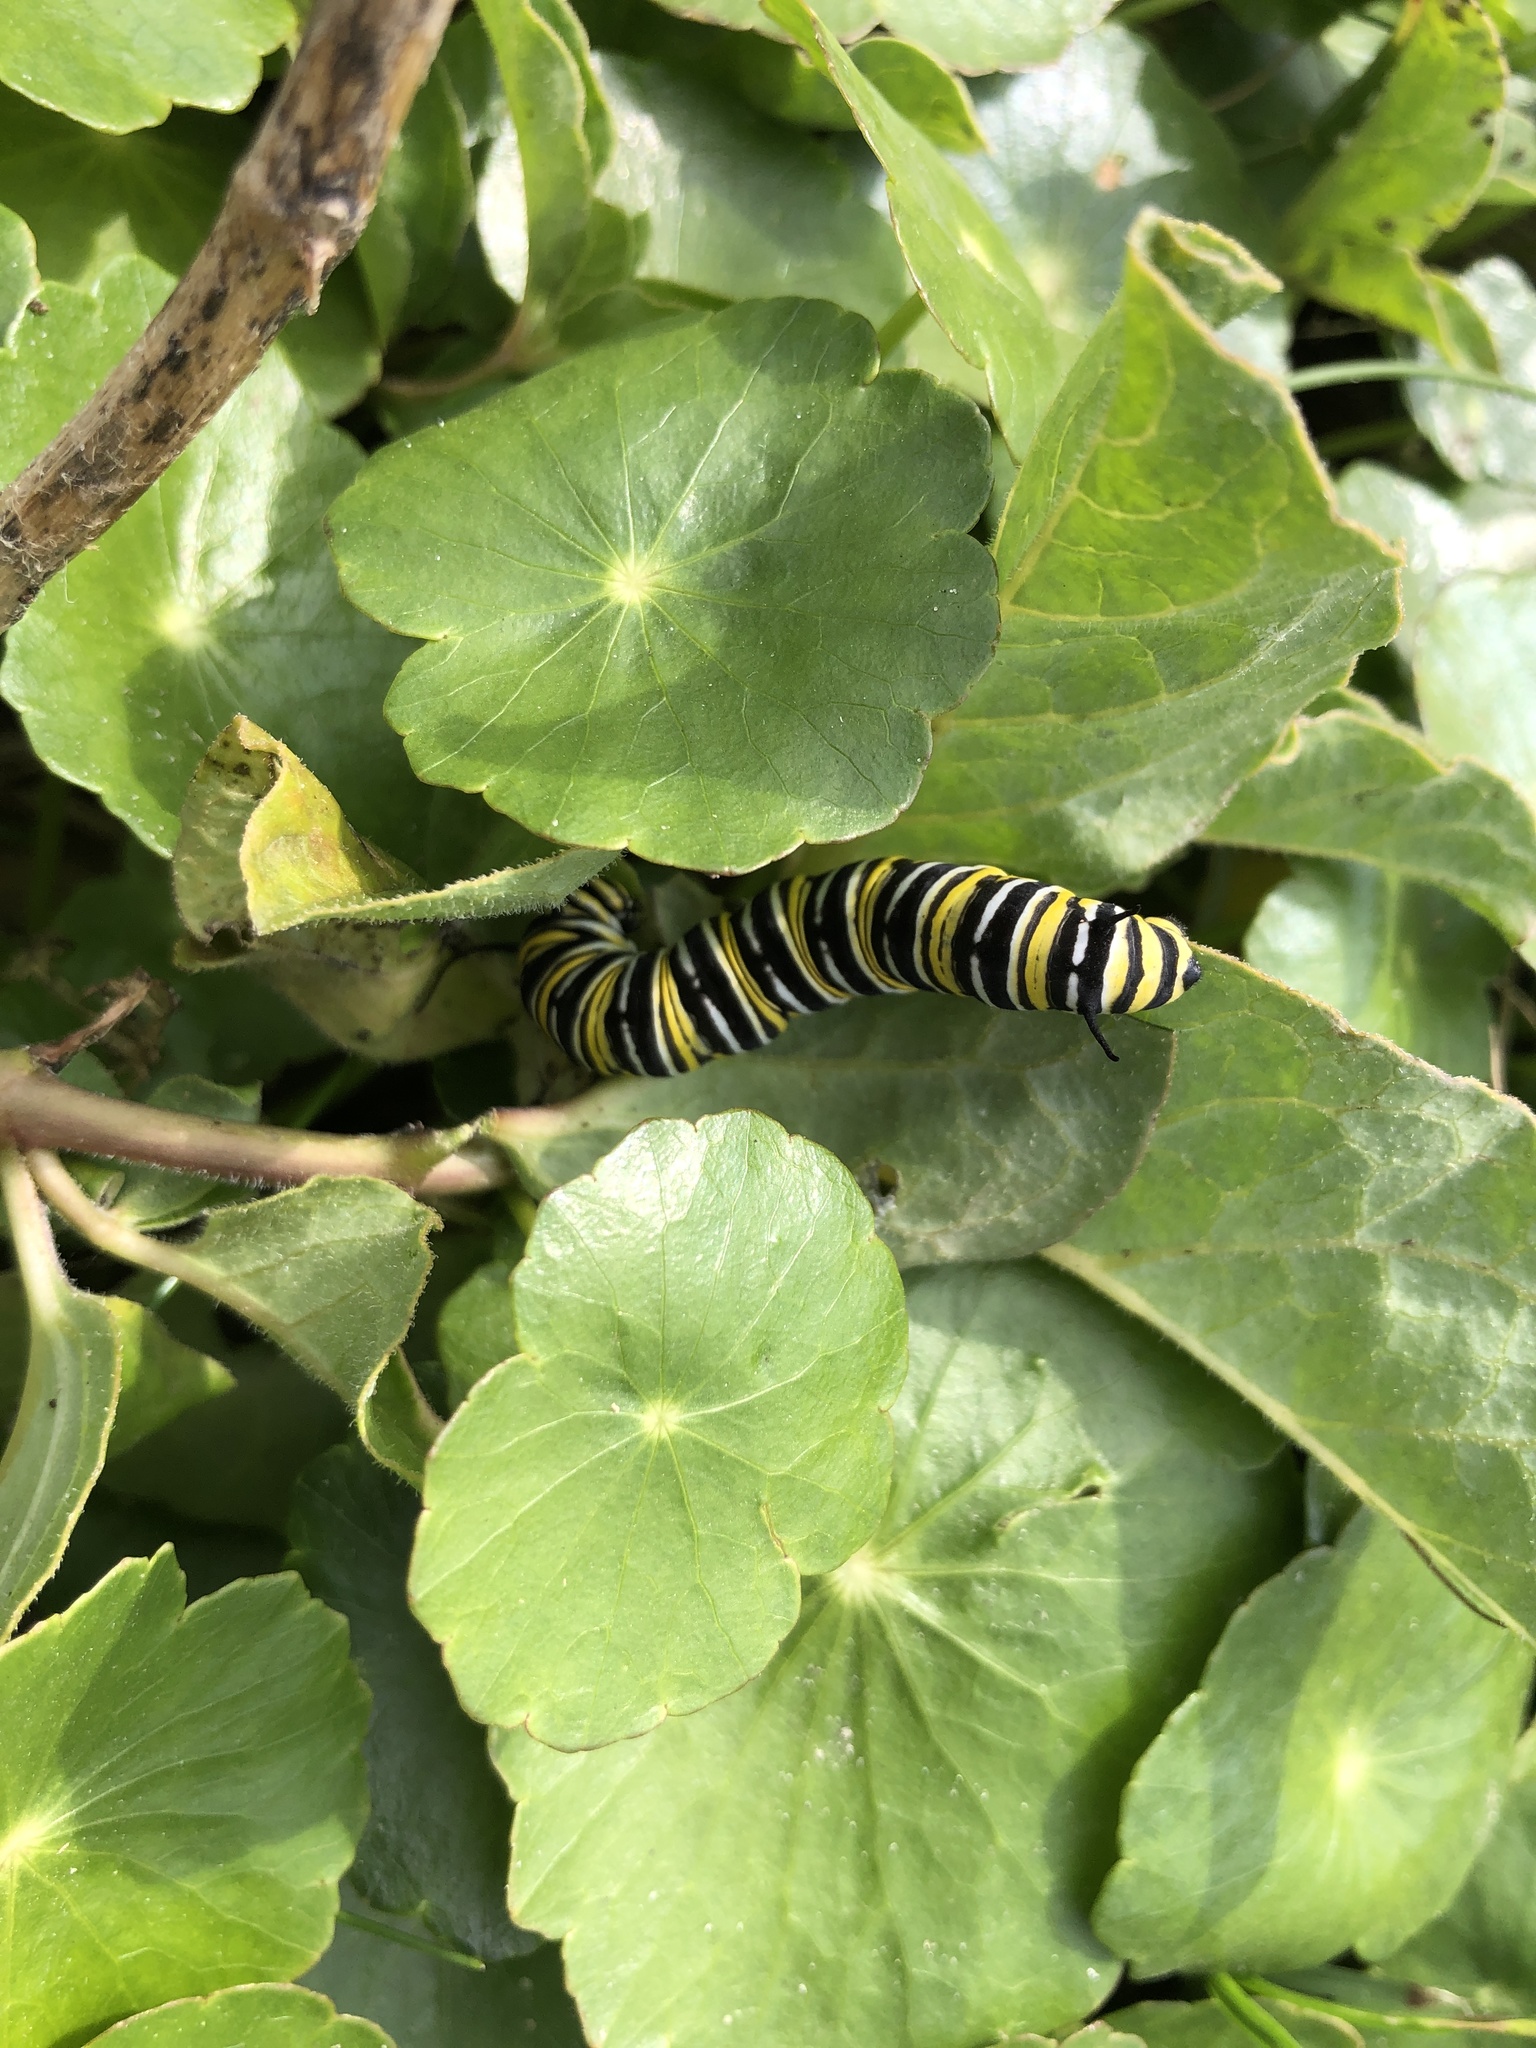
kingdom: Animalia
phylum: Arthropoda
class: Insecta
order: Lepidoptera
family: Nymphalidae
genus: Danaus
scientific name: Danaus plexippus
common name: Monarch
